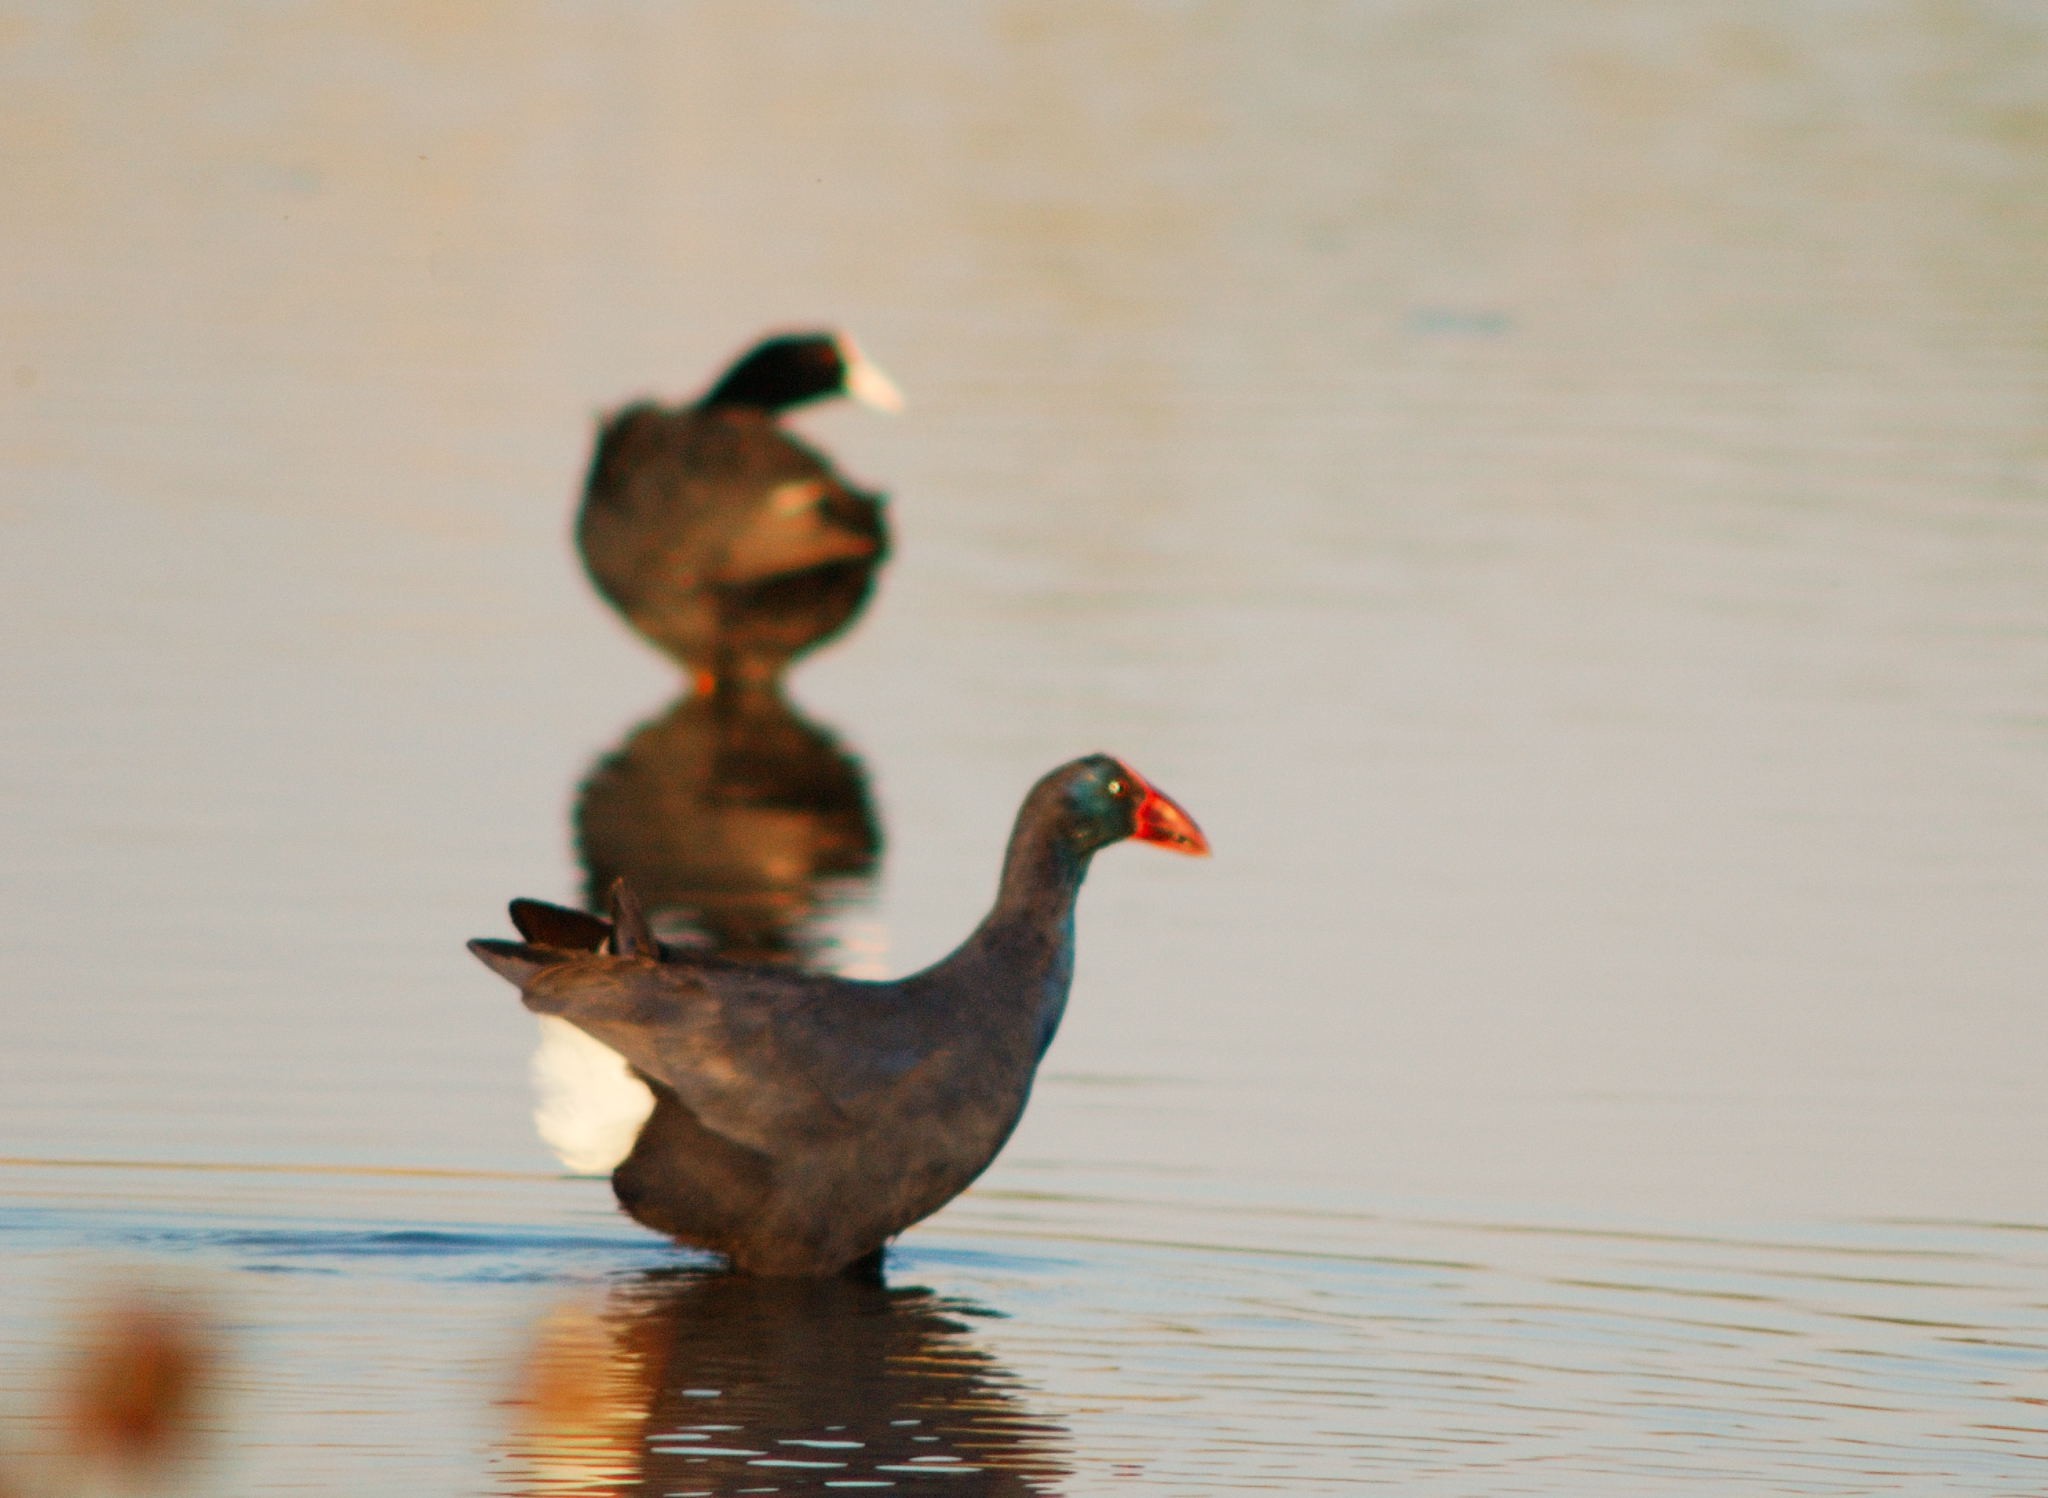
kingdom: Animalia
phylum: Chordata
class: Aves
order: Gruiformes
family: Rallidae
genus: Porphyrio
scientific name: Porphyrio porphyrio
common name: Purple swamphen
